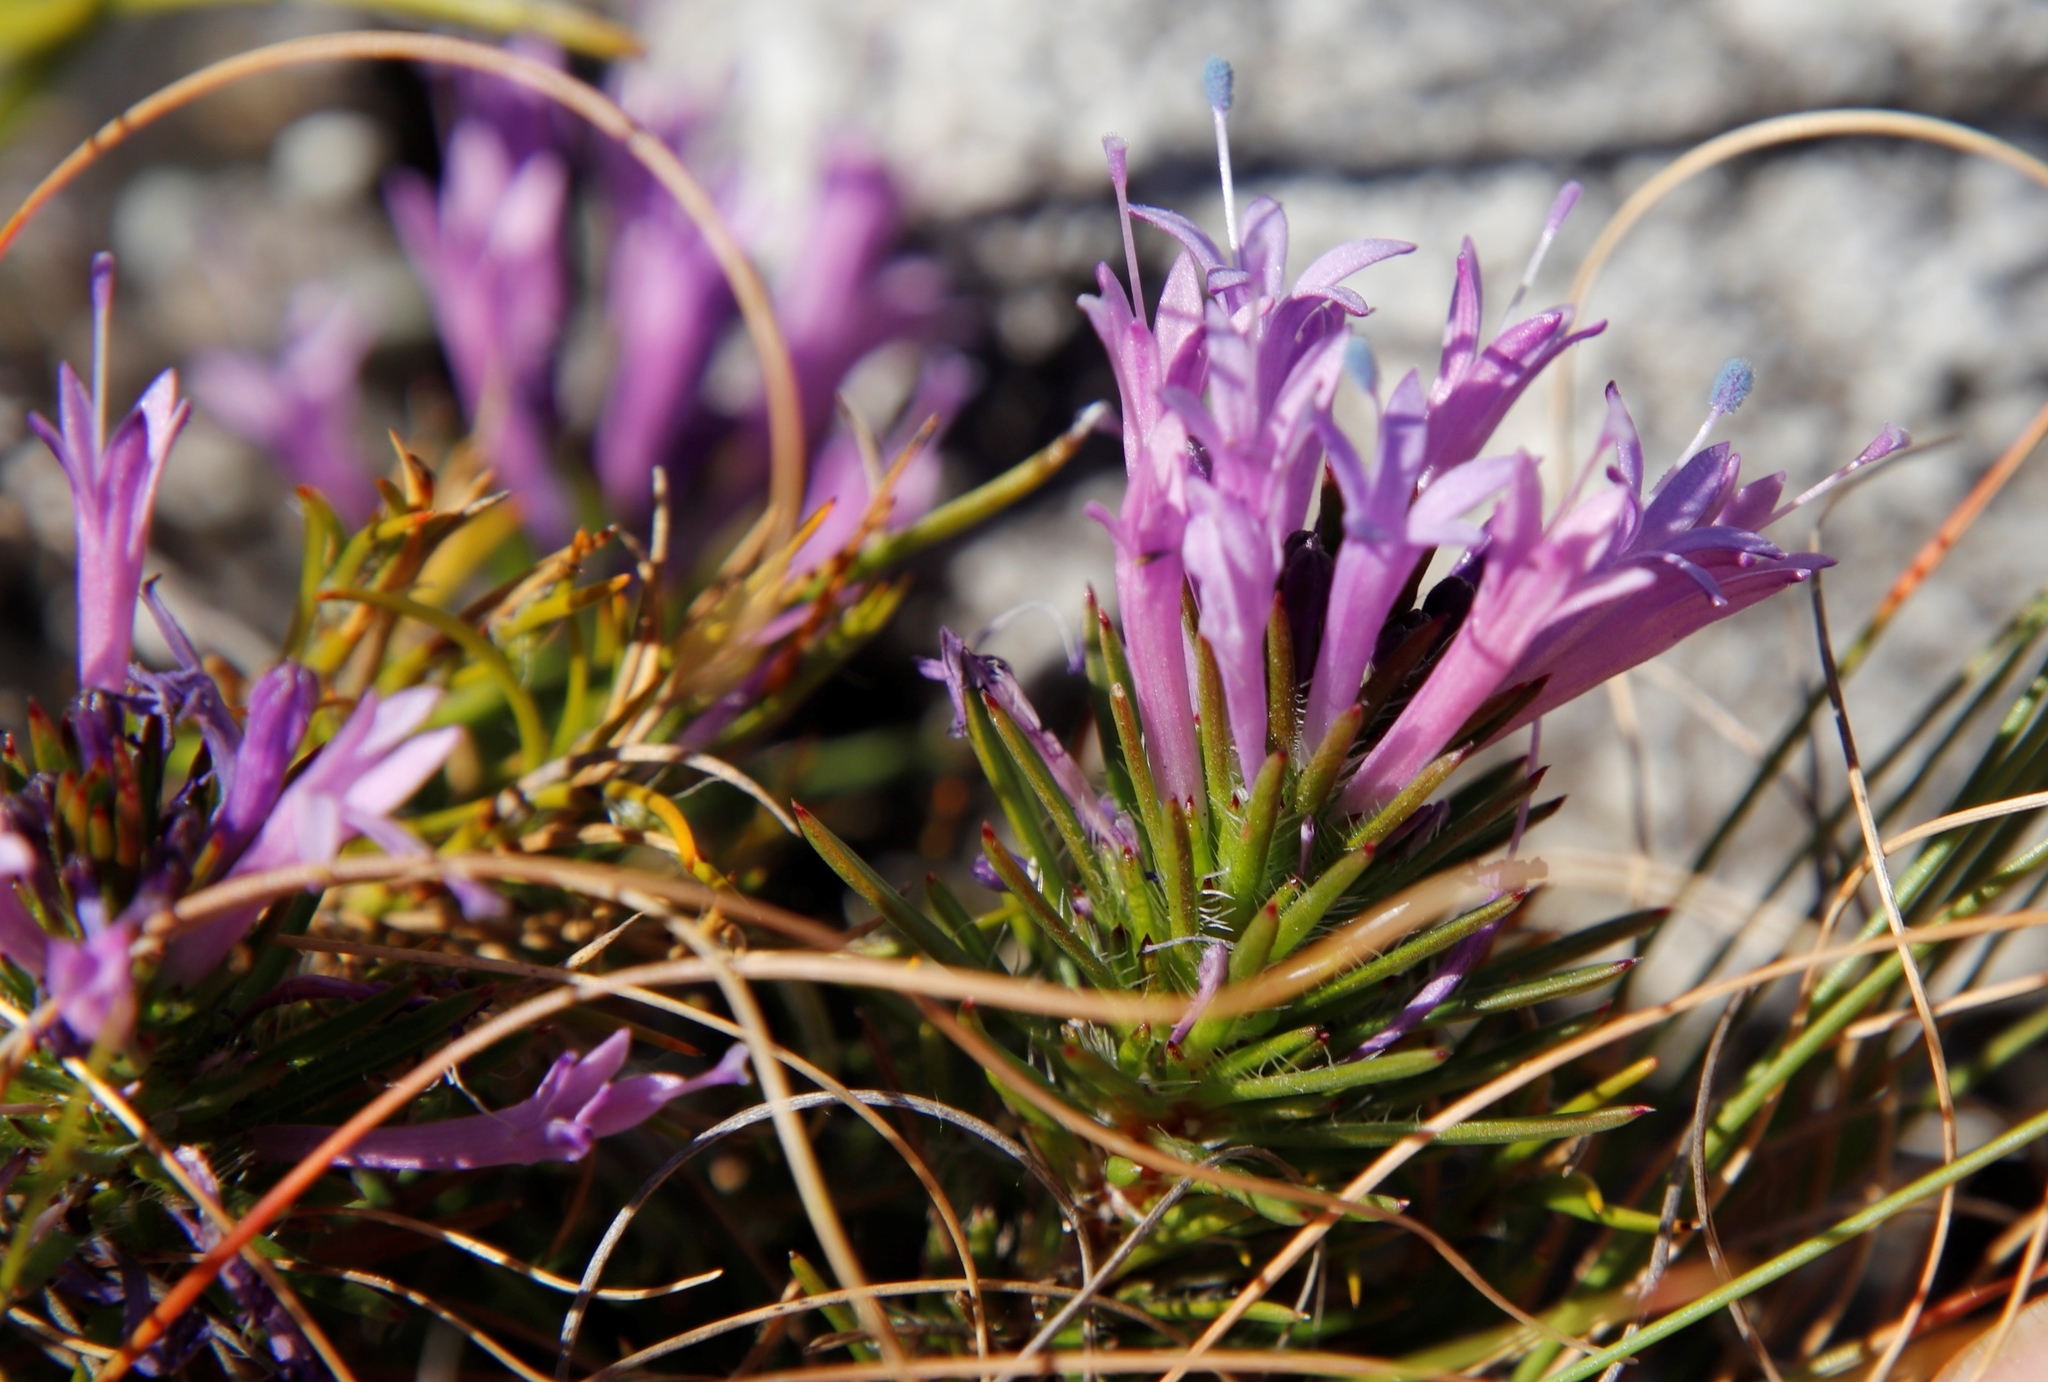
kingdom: Plantae
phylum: Tracheophyta
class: Magnoliopsida
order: Asterales
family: Campanulaceae
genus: Merciera
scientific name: Merciera azurea
